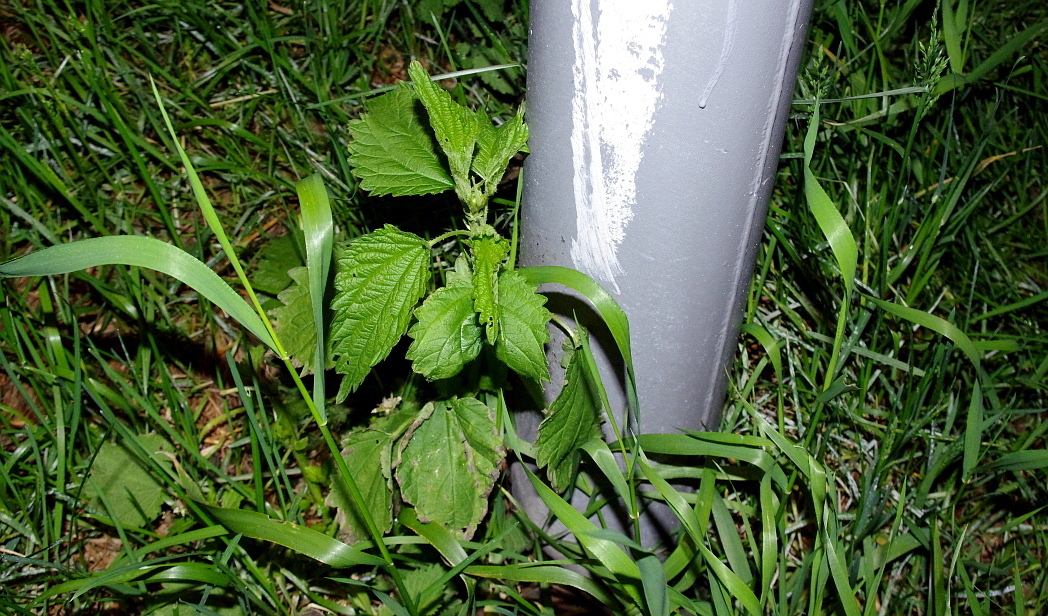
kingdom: Plantae
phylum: Tracheophyta
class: Magnoliopsida
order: Rosales
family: Urticaceae
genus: Urtica
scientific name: Urtica dioica
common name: Common nettle
